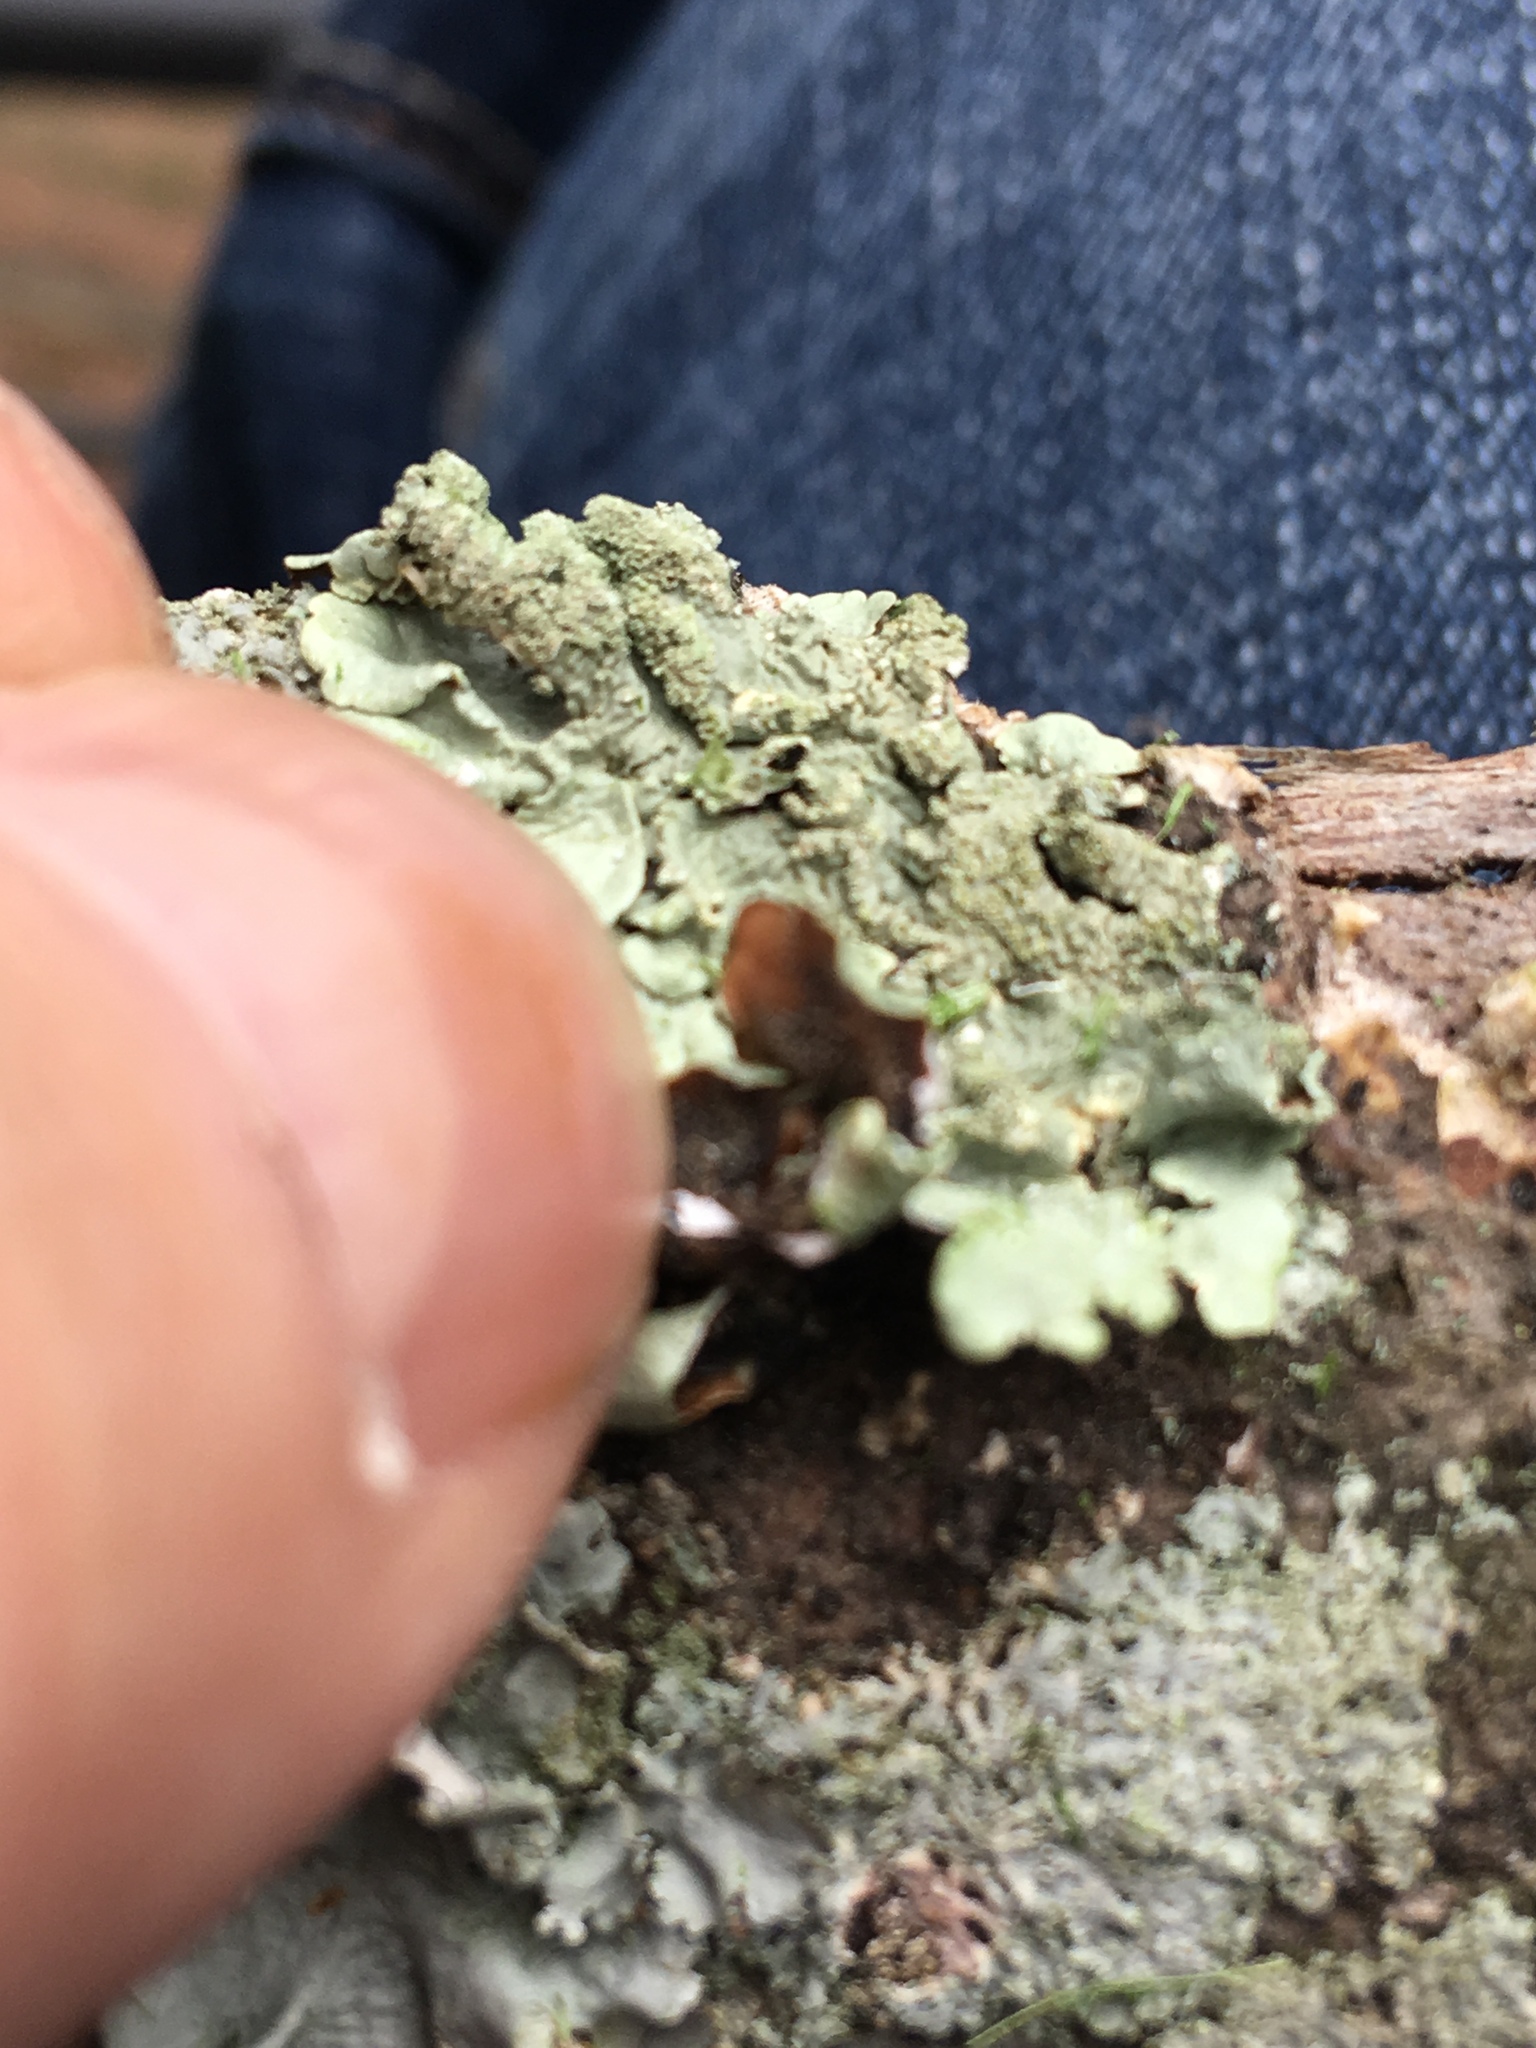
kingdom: Fungi
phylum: Ascomycota
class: Lecanoromycetes
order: Lecanorales
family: Parmeliaceae
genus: Flavoparmelia
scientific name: Flavoparmelia caperata
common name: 40-mile per hour lichen
